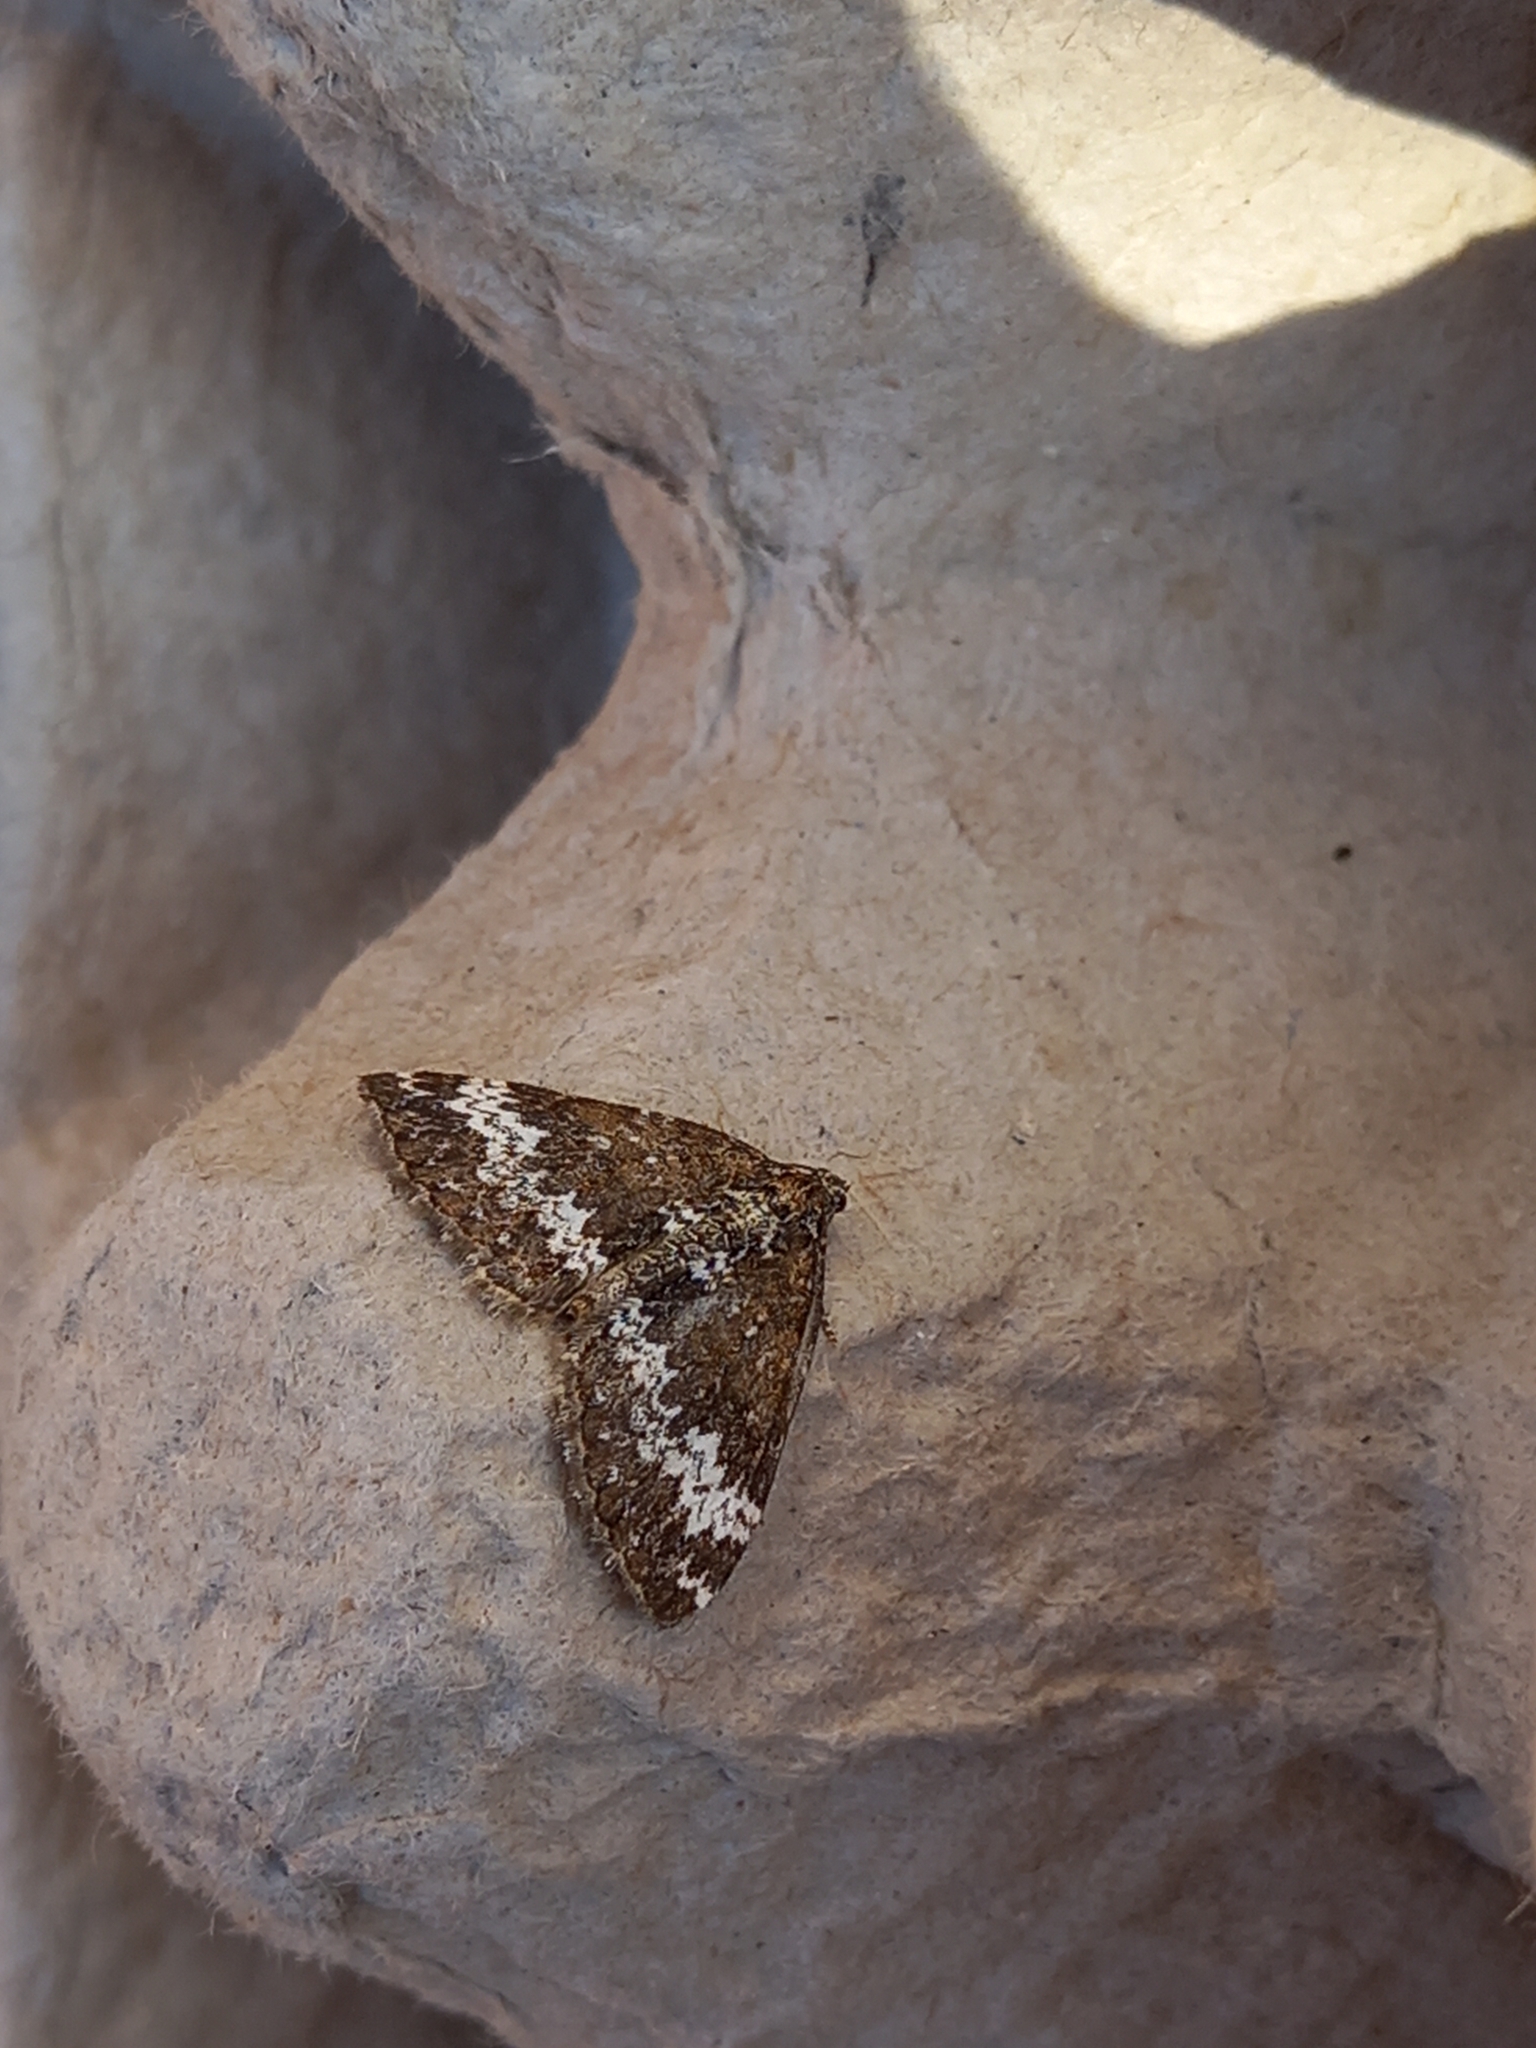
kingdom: Animalia
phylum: Arthropoda
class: Insecta
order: Lepidoptera
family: Geometridae
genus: Perizoma
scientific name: Perizoma alchemillata
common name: Small rivulet
